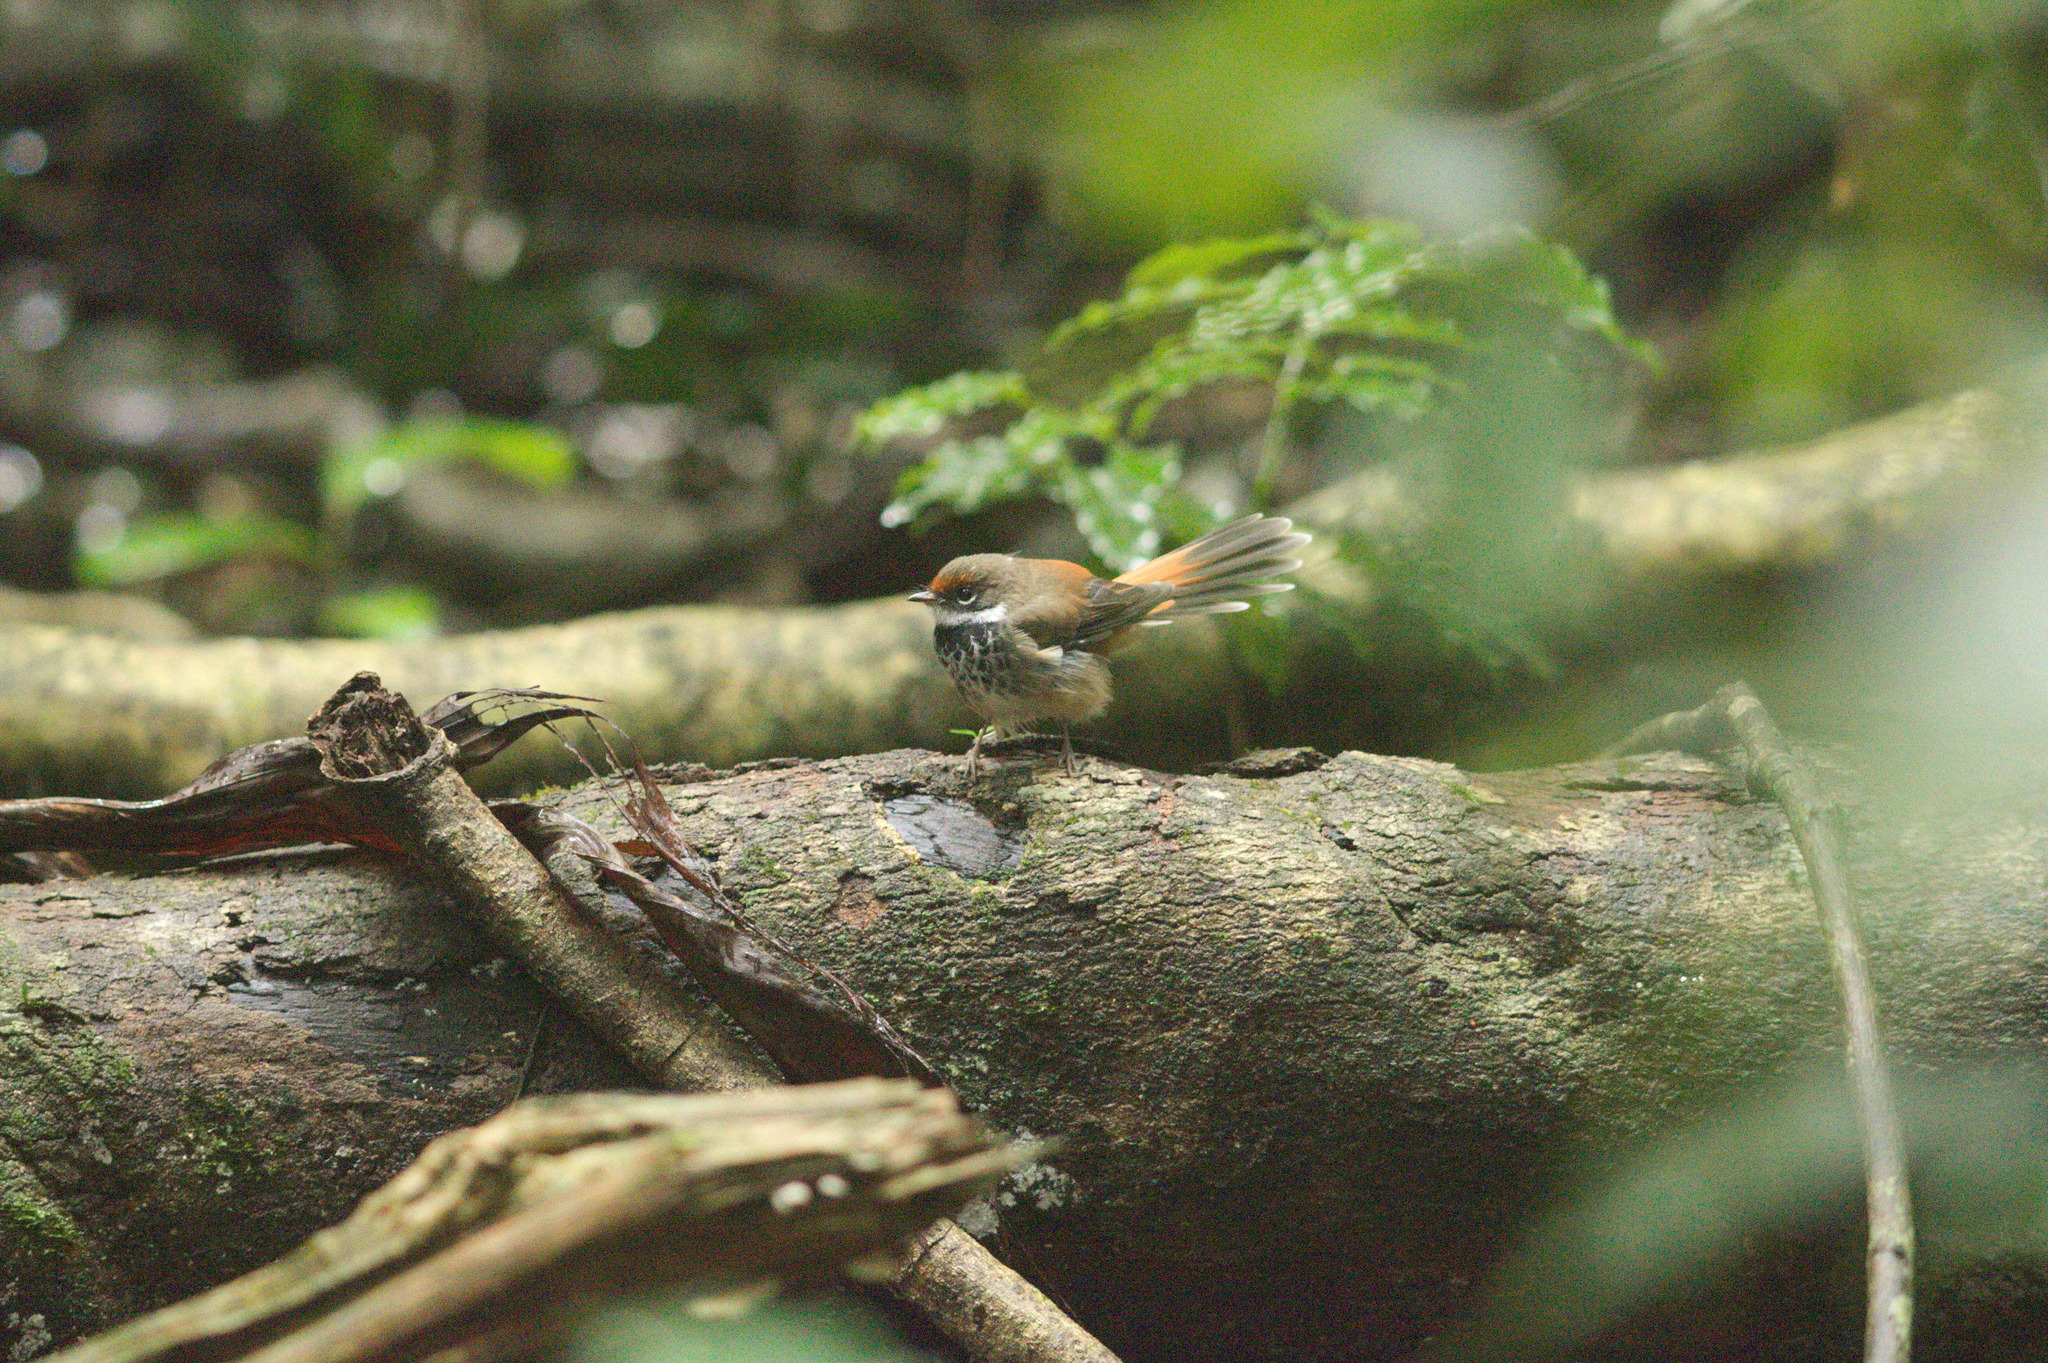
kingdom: Animalia
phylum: Chordata
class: Aves
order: Passeriformes
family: Rhipiduridae
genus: Rhipidura
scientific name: Rhipidura rufifrons
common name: Rufous fantail
